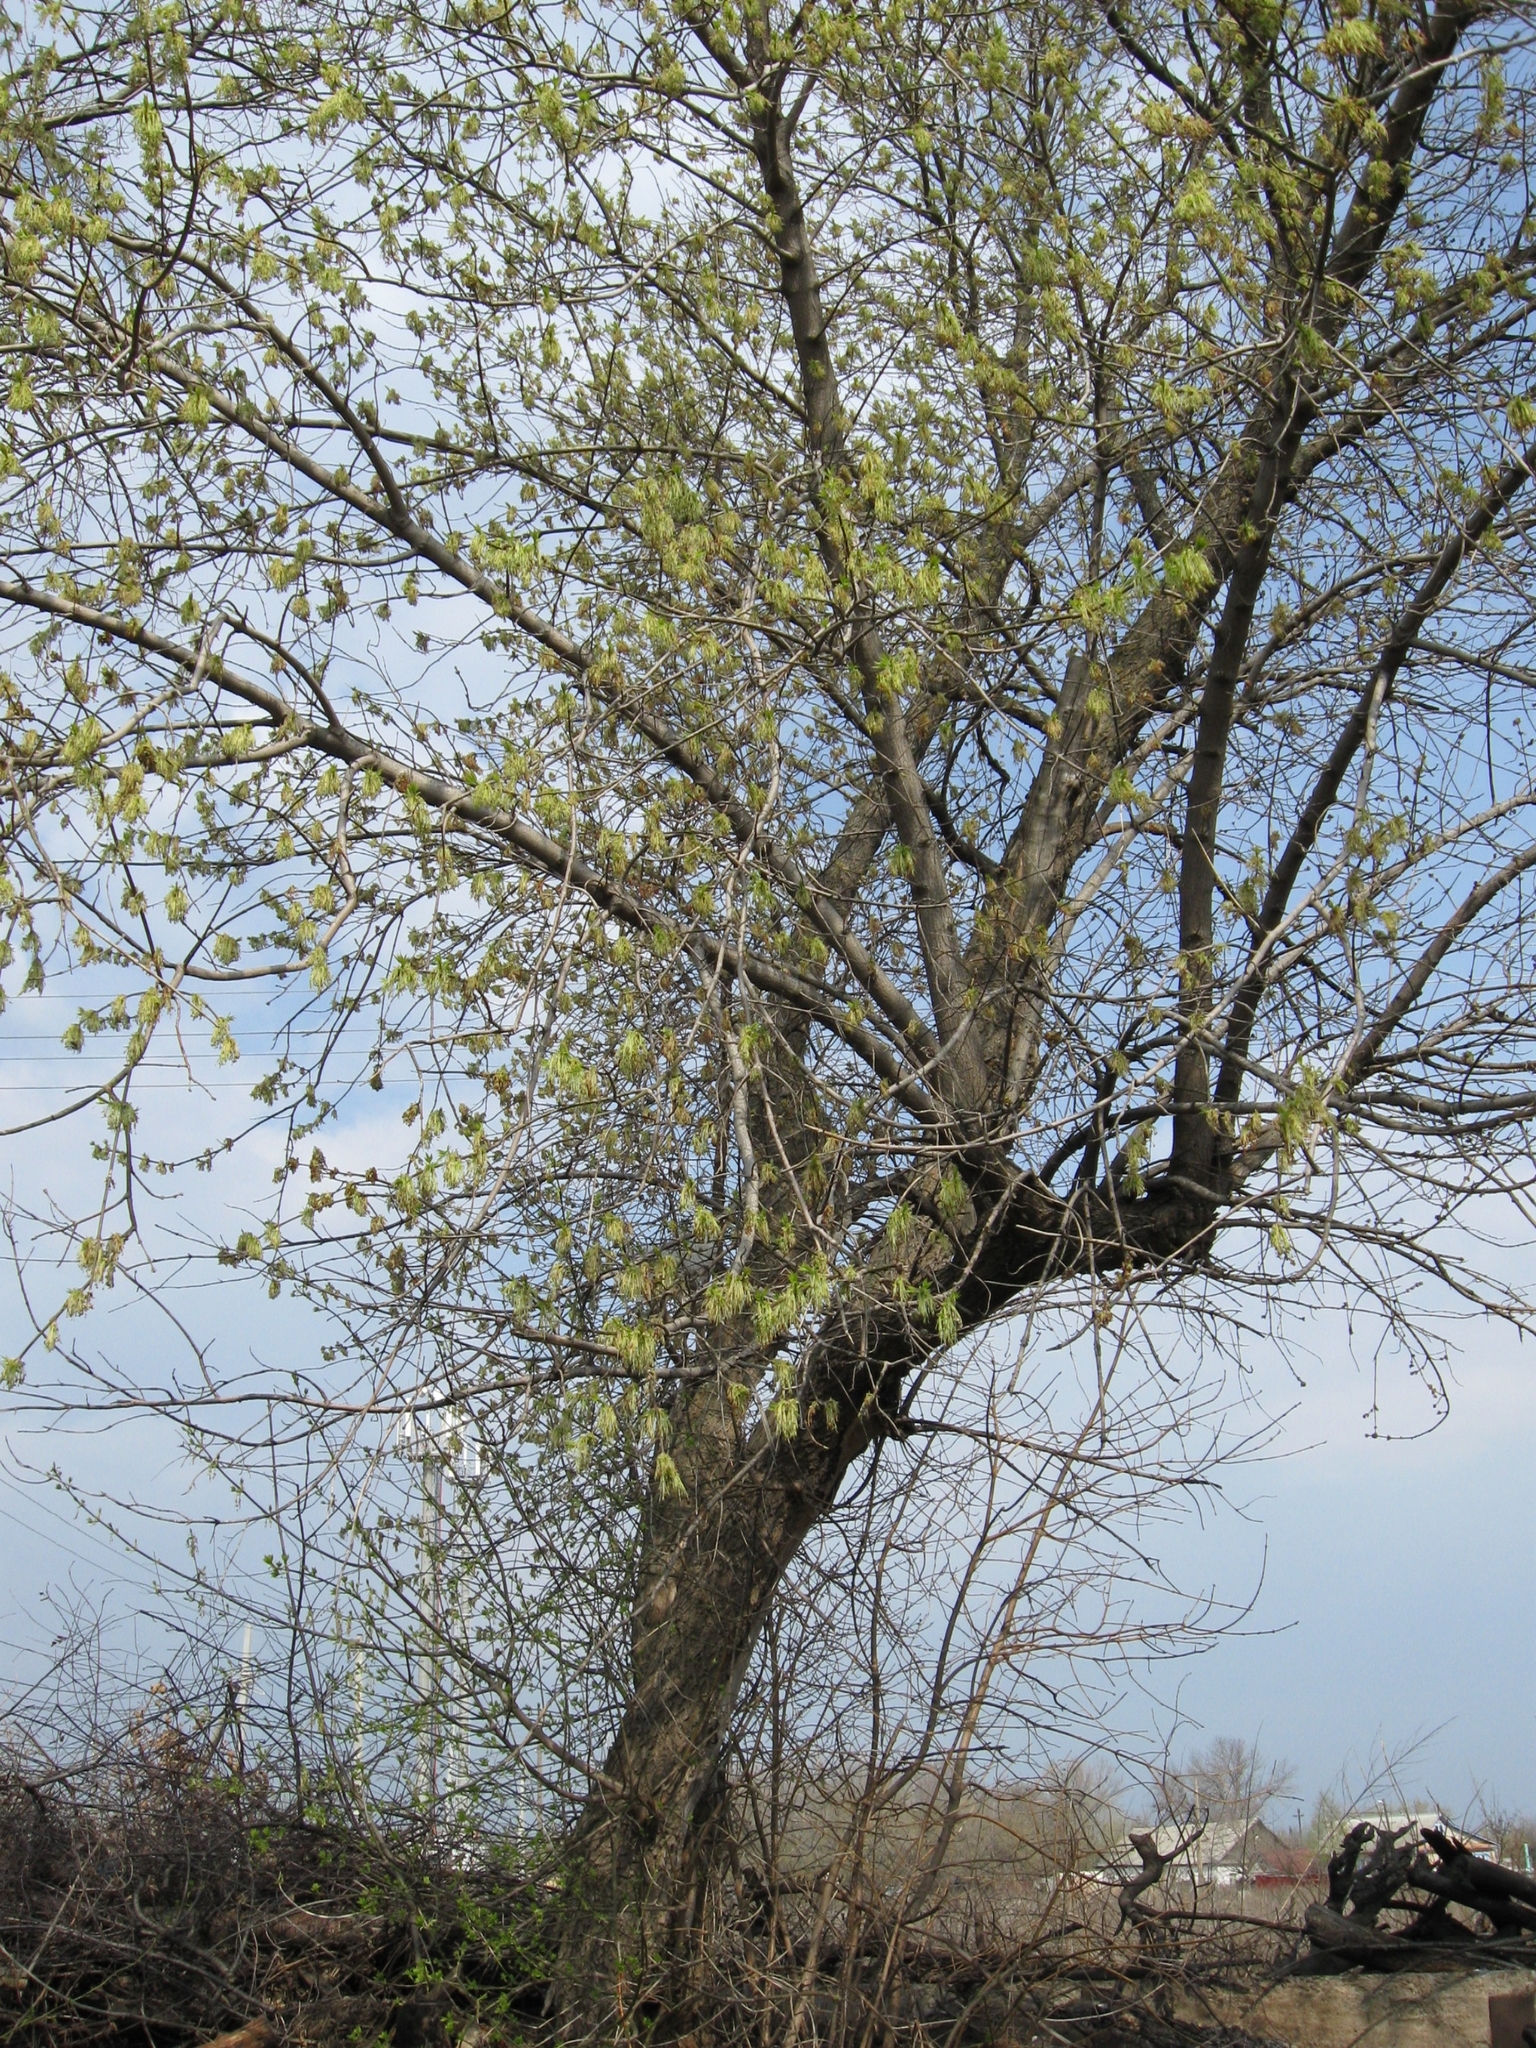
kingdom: Plantae
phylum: Tracheophyta
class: Magnoliopsida
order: Sapindales
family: Sapindaceae
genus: Acer
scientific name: Acer negundo
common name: Ashleaf maple
